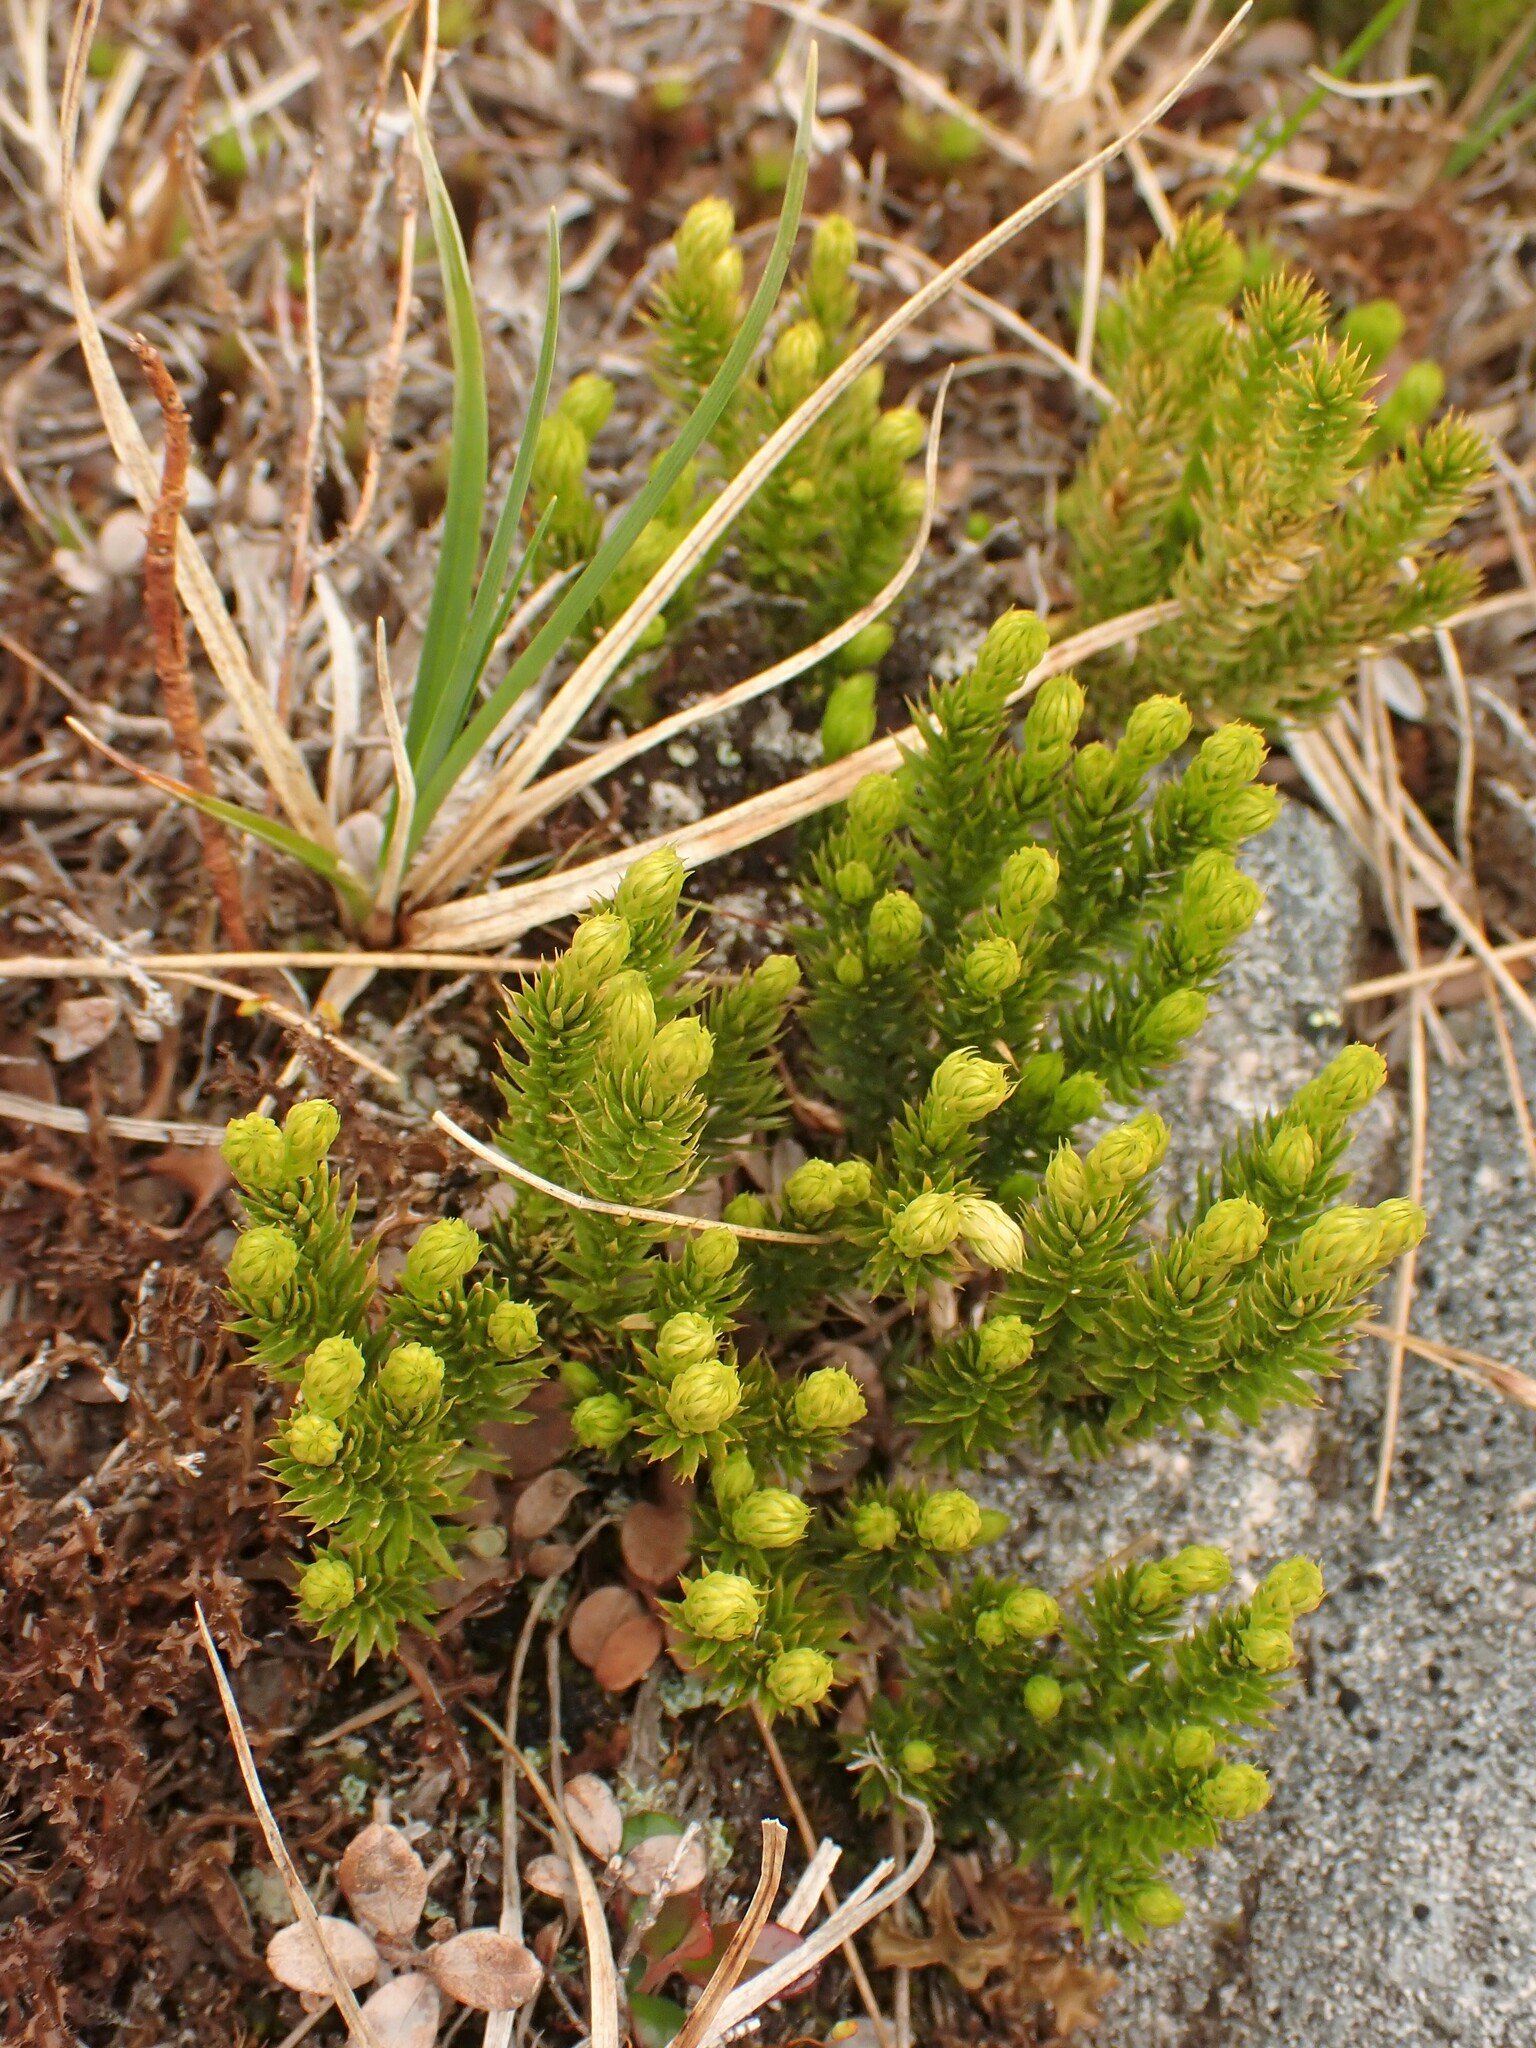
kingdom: Plantae
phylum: Tracheophyta
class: Lycopodiopsida
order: Lycopodiales
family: Lycopodiaceae
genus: Spinulum
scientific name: Spinulum annotinum
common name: Interrupted club-moss
